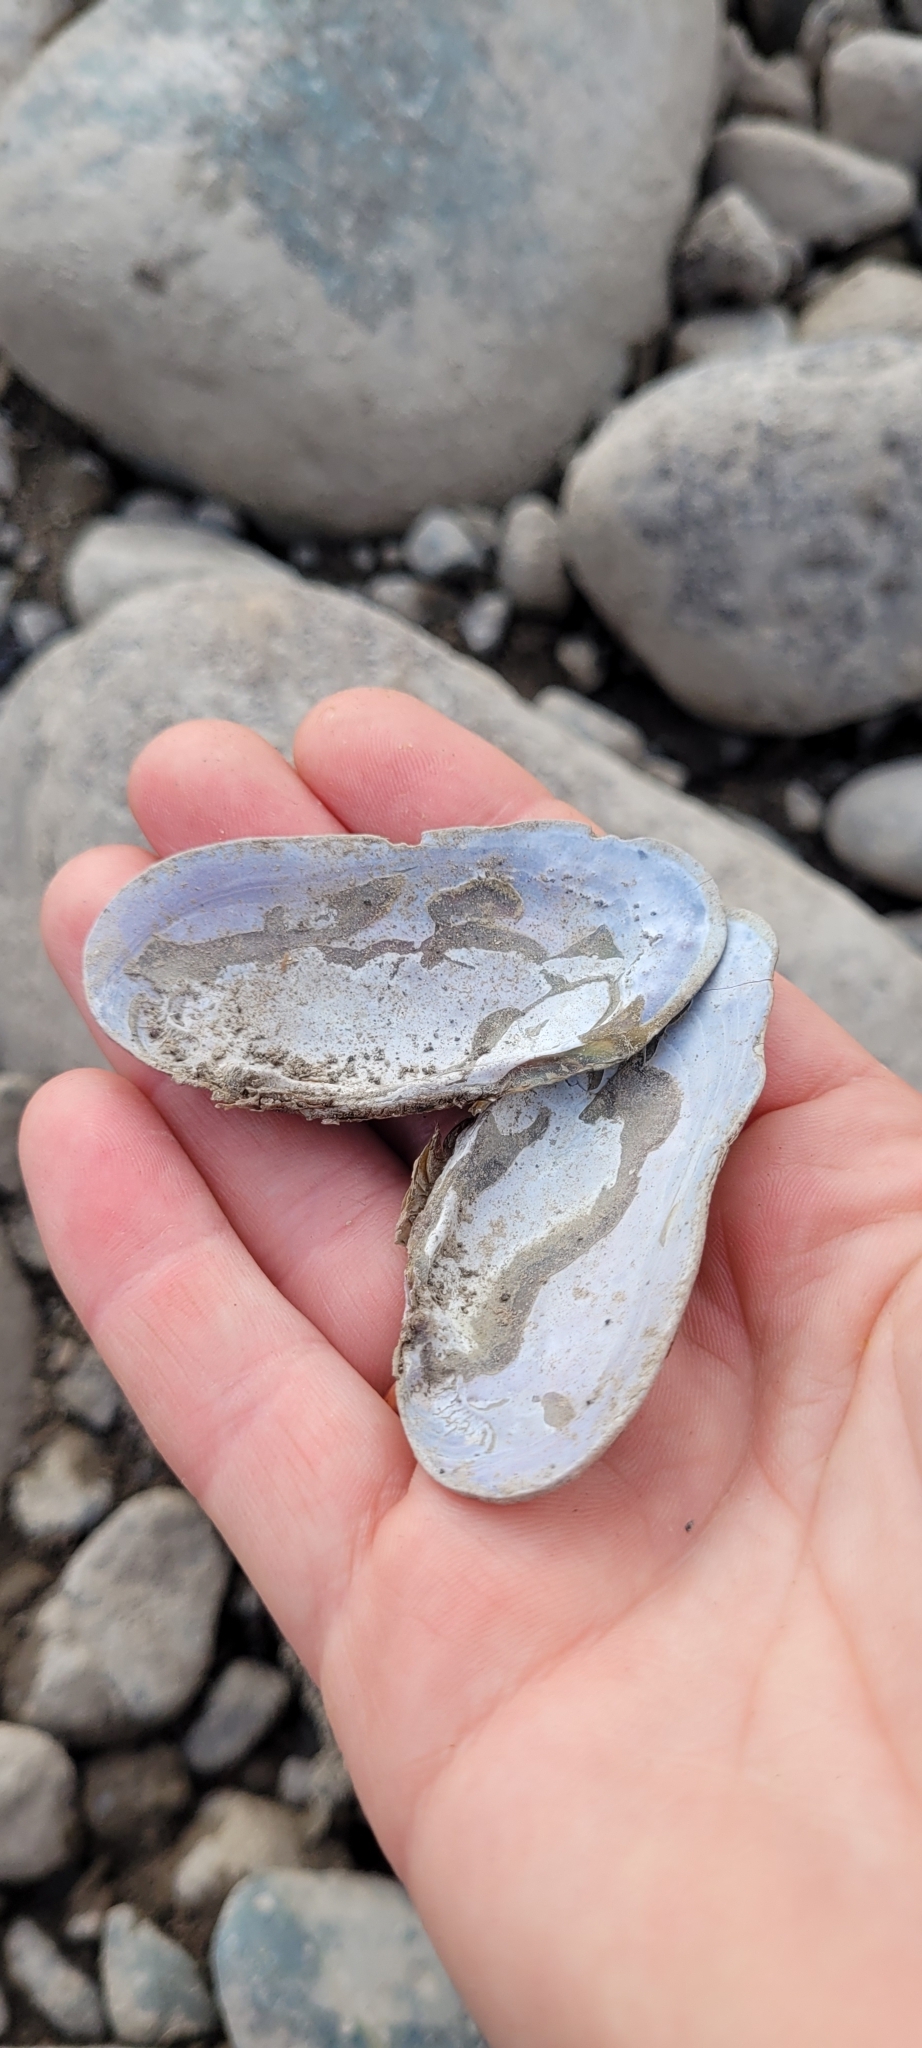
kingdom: Animalia
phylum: Mollusca
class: Bivalvia
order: Unionida
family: Margaritiferidae
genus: Margaritifera
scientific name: Margaritifera falcata
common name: Western pearlshell
